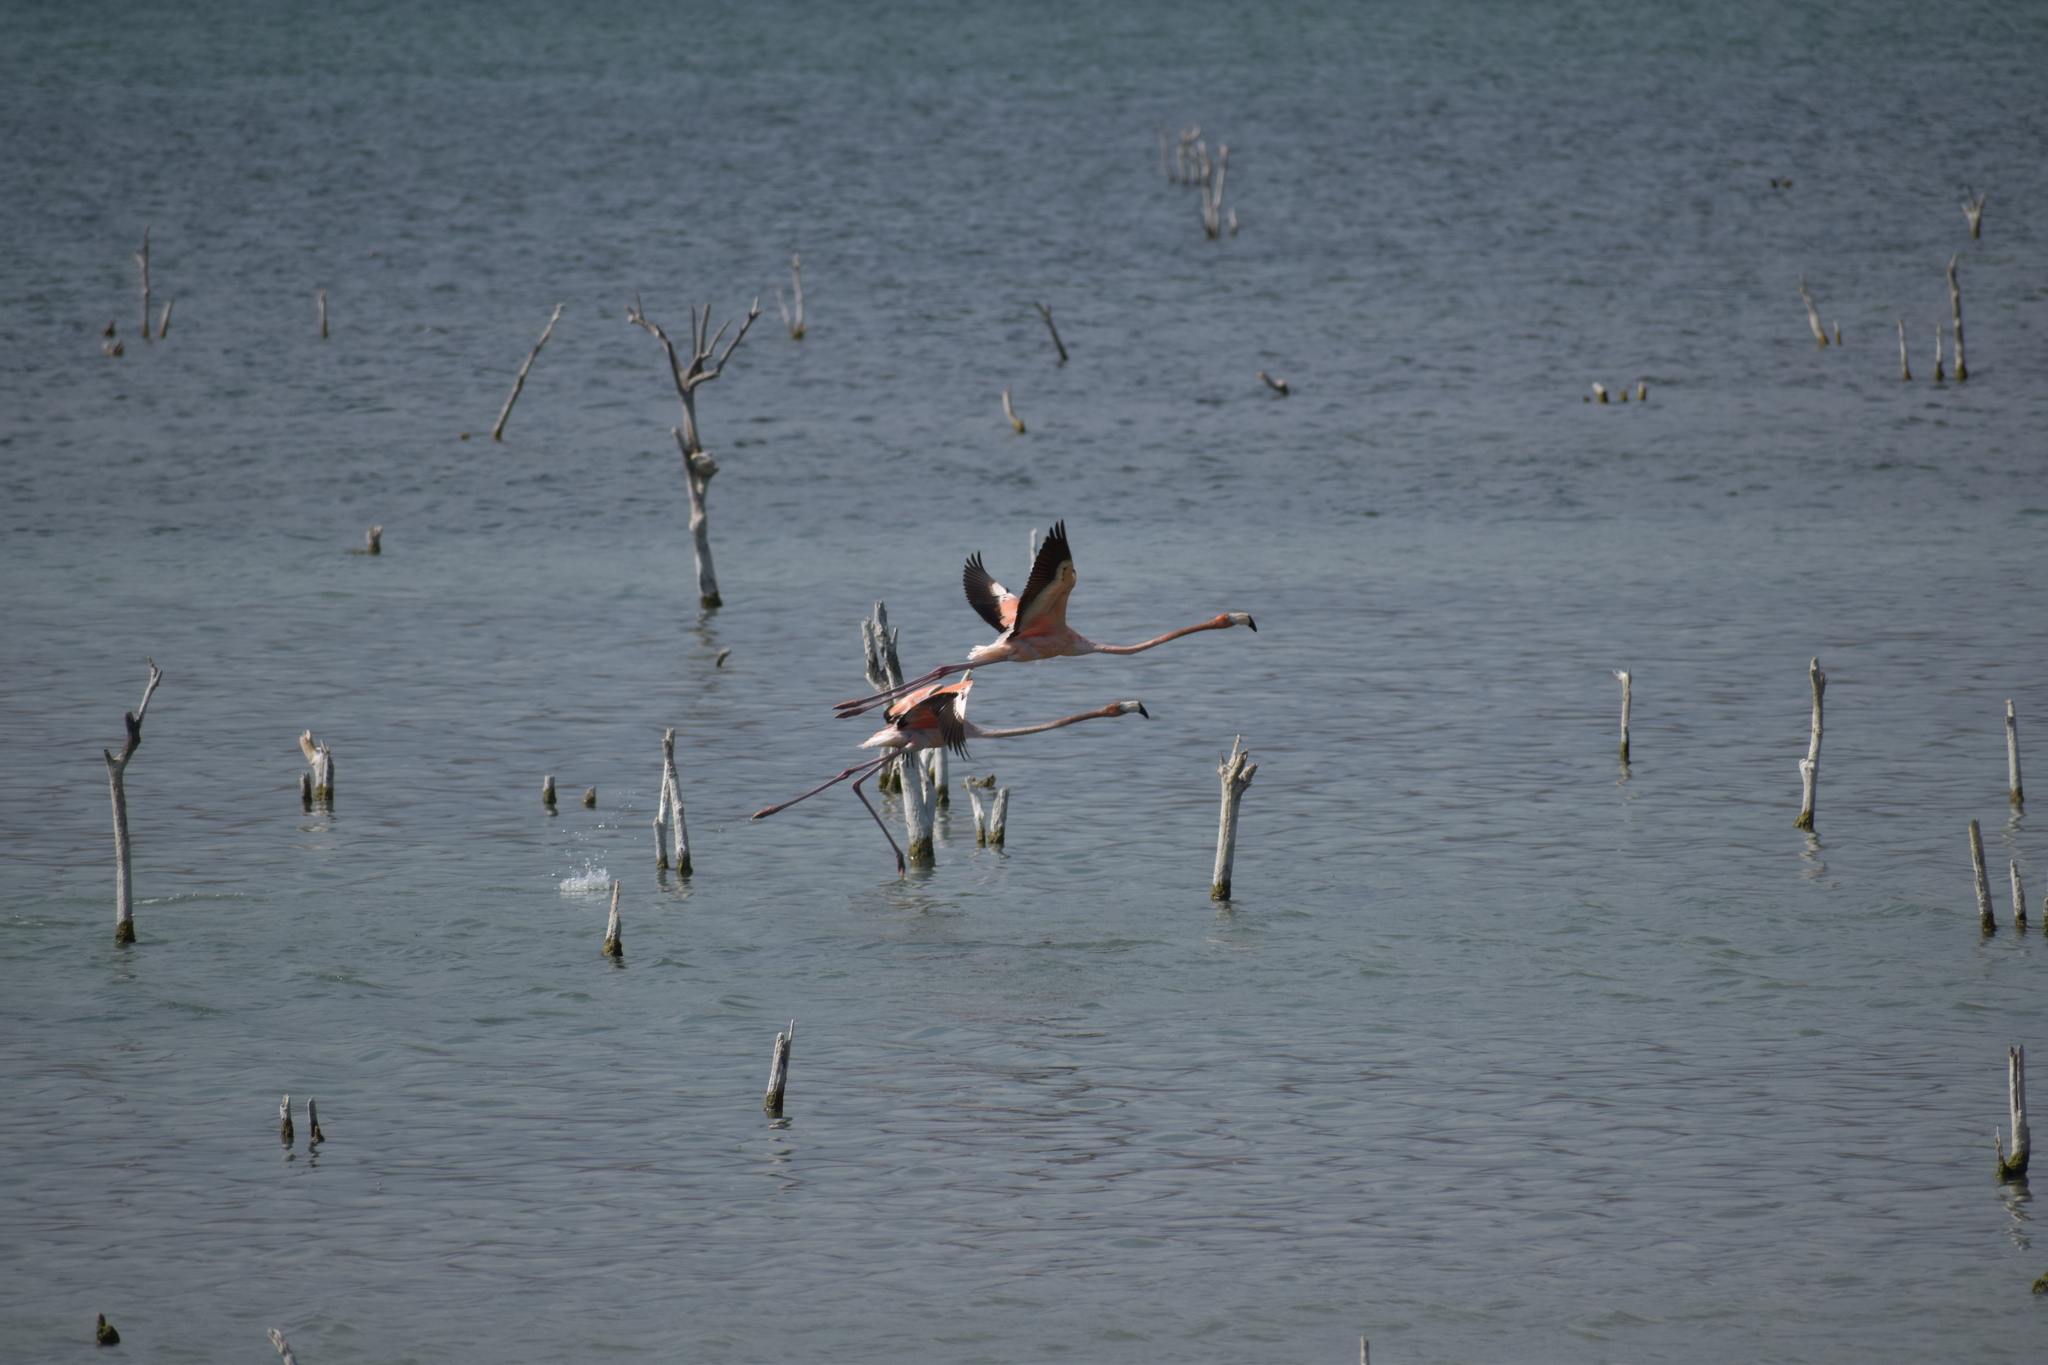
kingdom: Animalia
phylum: Chordata
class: Aves
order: Phoenicopteriformes
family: Phoenicopteridae
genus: Phoenicopterus
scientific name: Phoenicopterus ruber
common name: American flamingo
